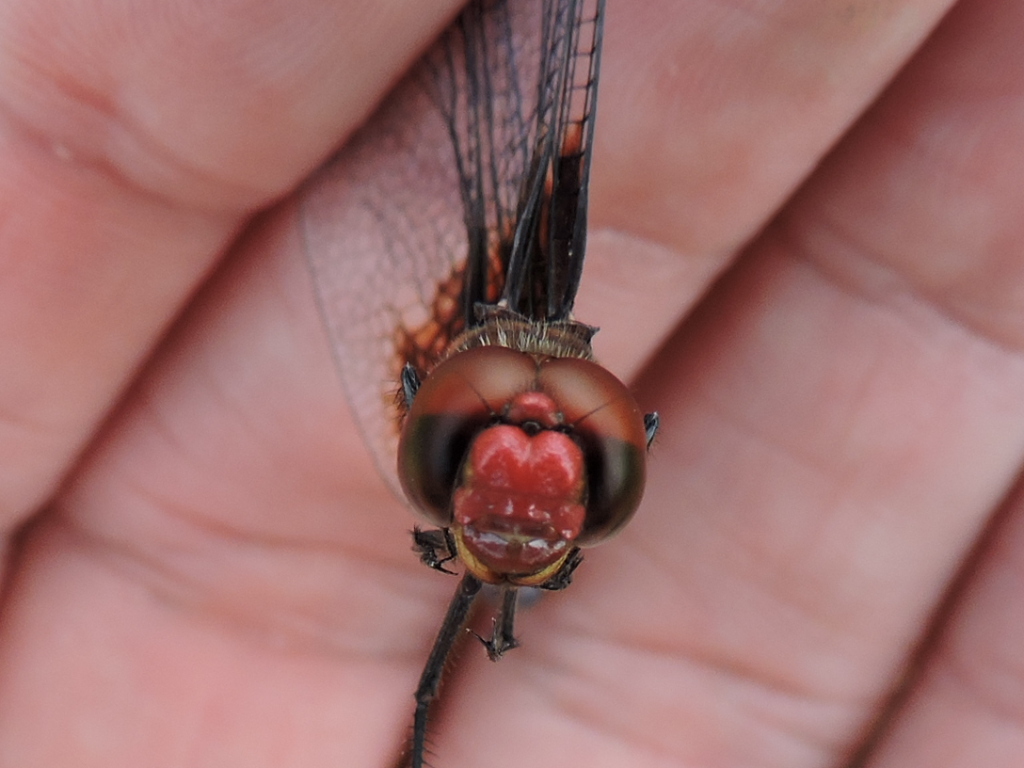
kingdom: Animalia
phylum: Arthropoda
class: Insecta
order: Odonata
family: Libellulidae
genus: Dythemis
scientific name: Dythemis fugax
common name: Checkered setwing
